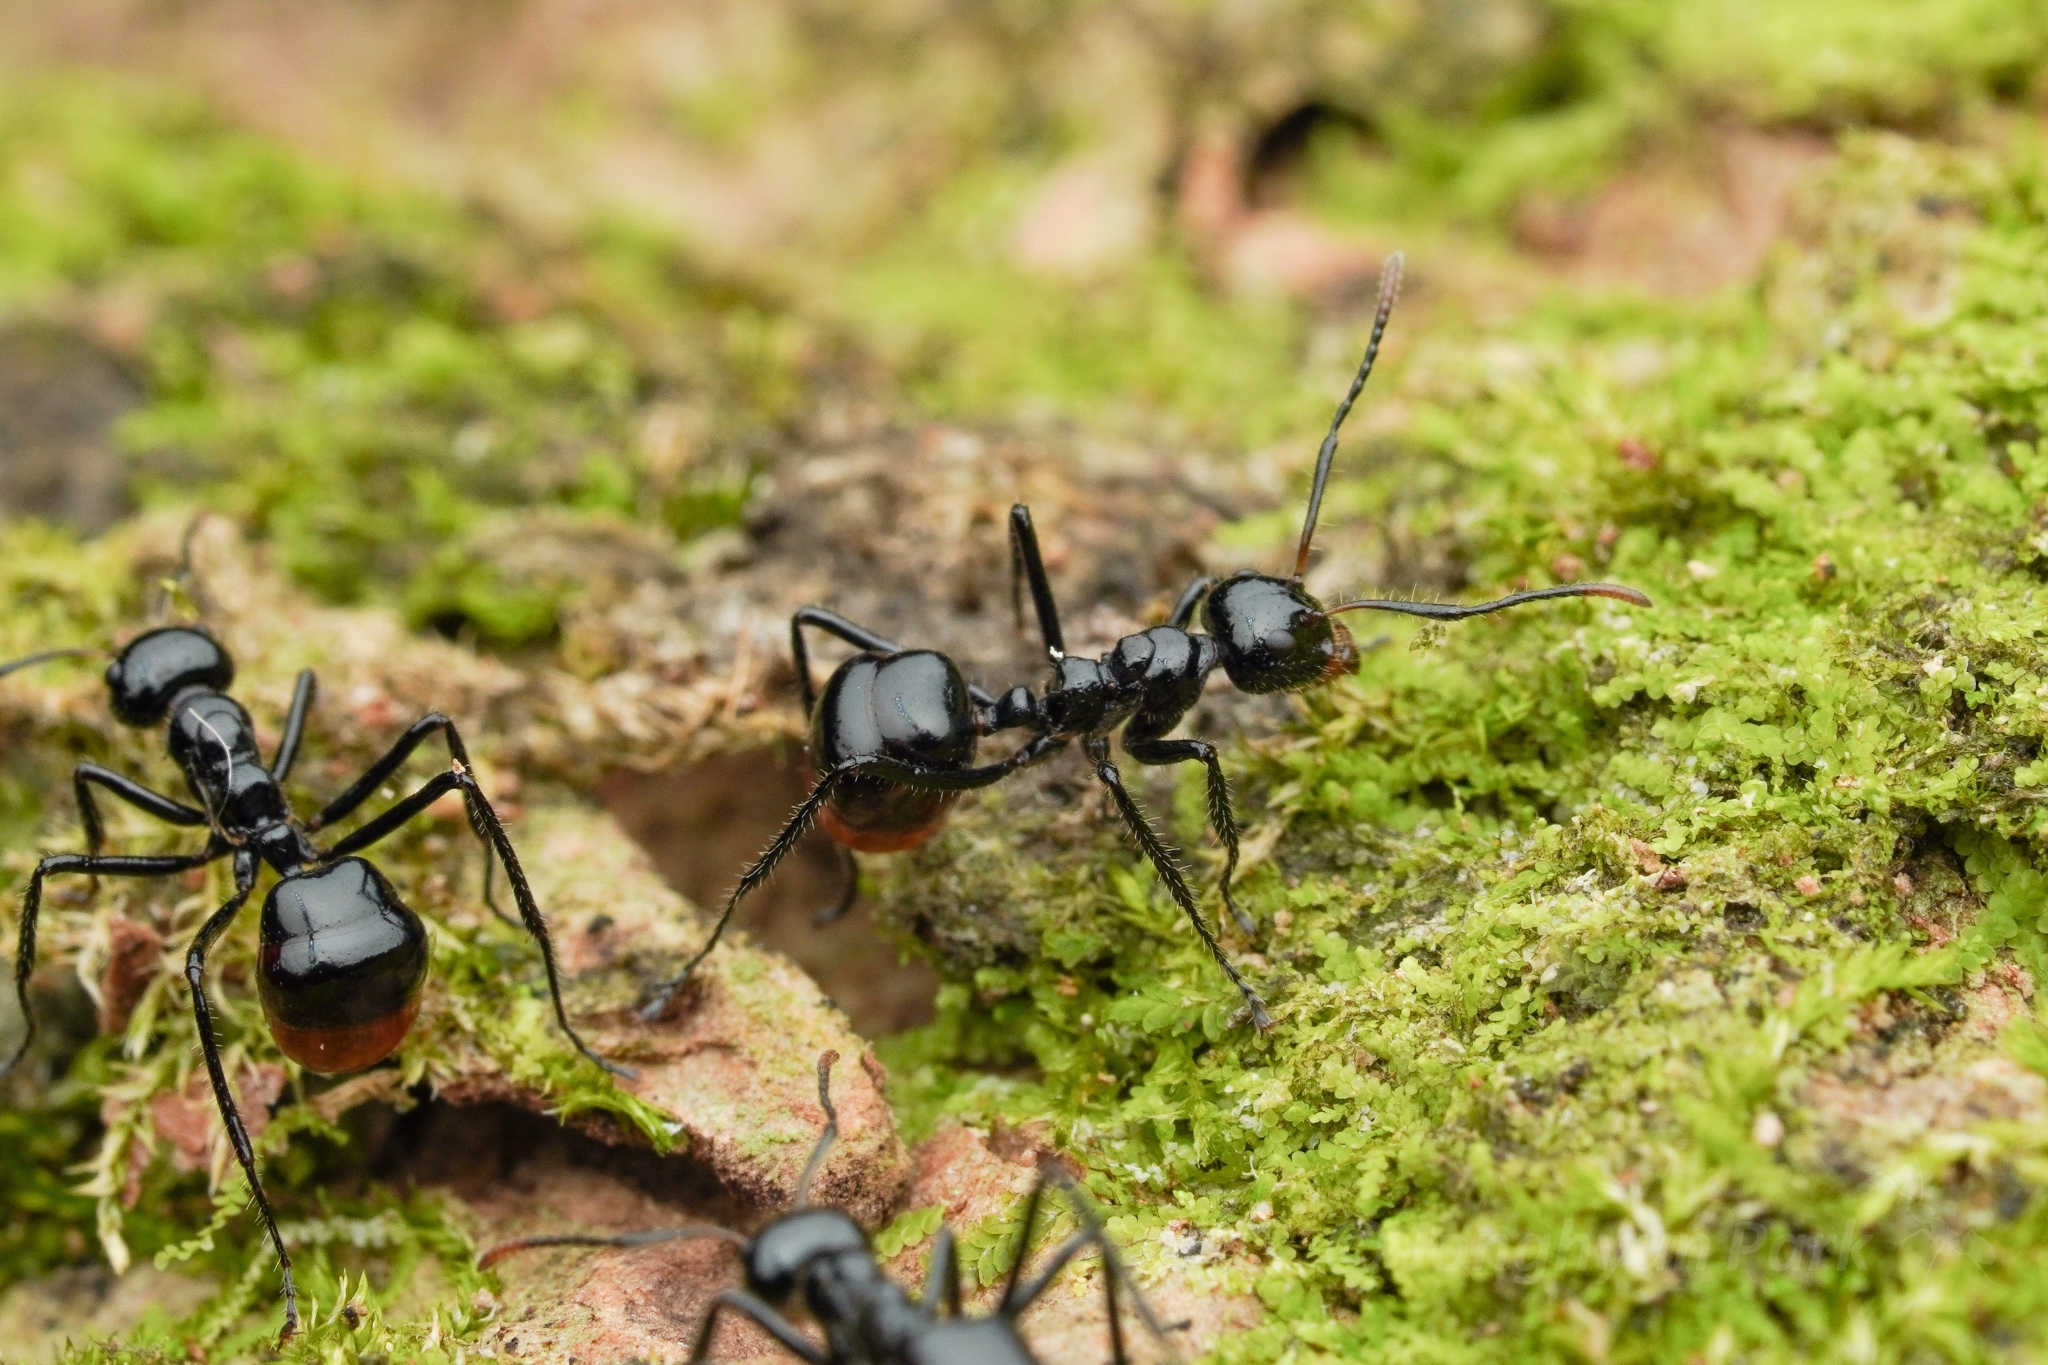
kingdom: Animalia
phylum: Arthropoda
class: Insecta
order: Hymenoptera
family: Formicidae
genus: Dolichoderus
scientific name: Dolichoderus sulcaticeps
